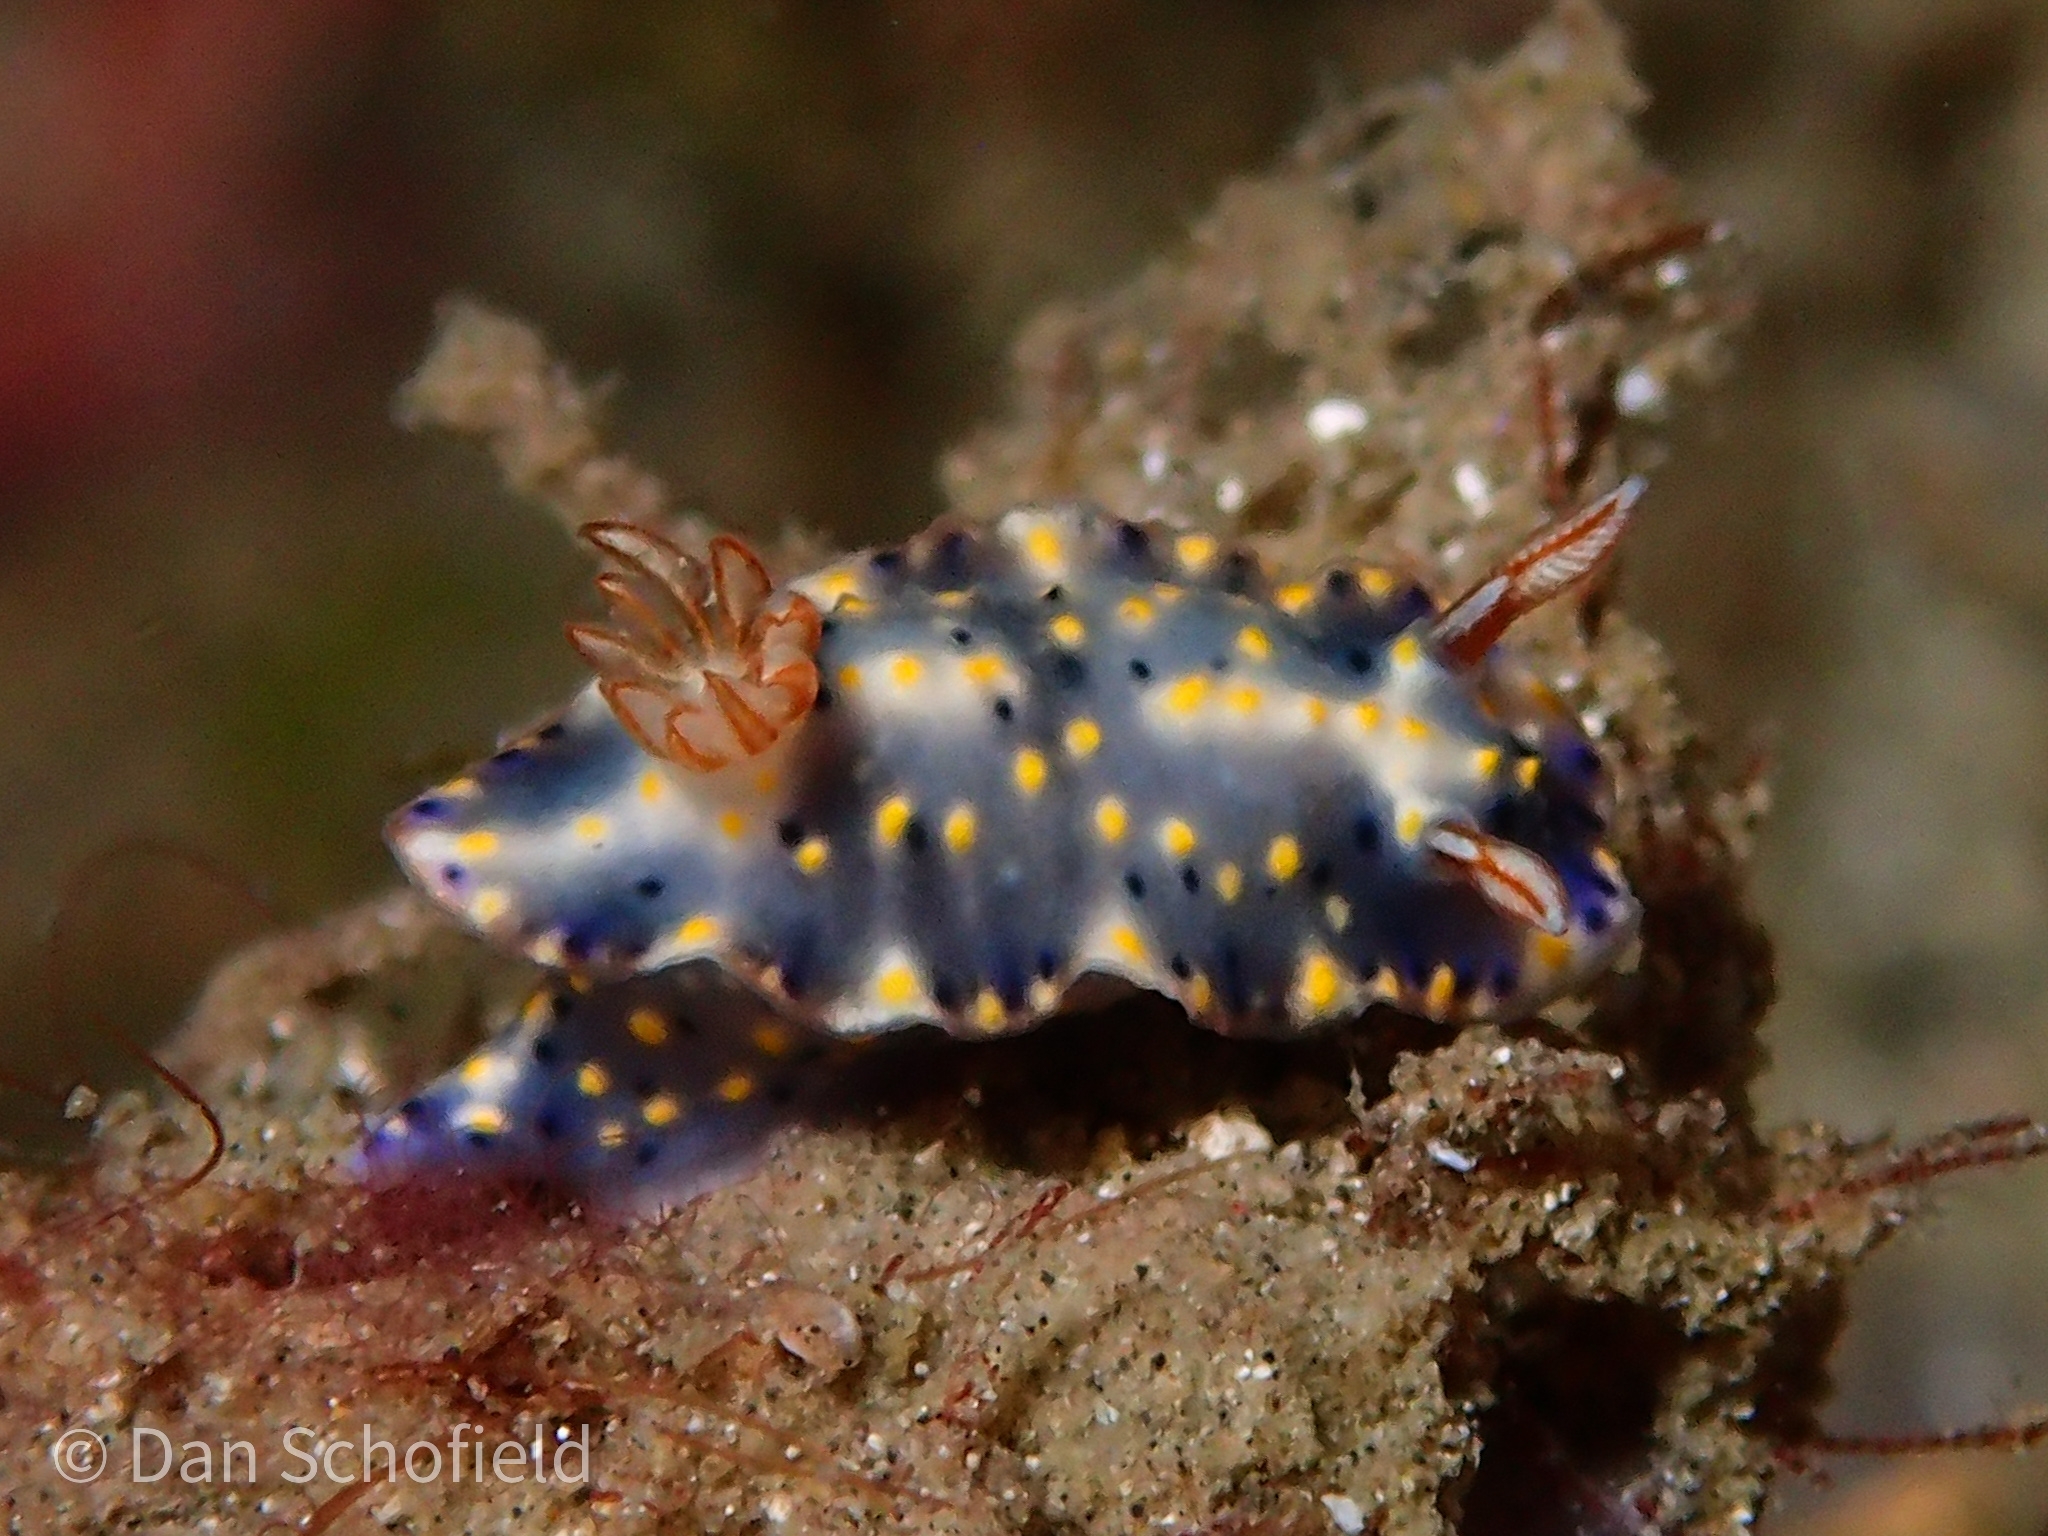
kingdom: Animalia
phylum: Mollusca
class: Gastropoda
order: Nudibranchia
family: Chromodorididae
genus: Hypselodoris
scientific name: Hypselodoris roo
